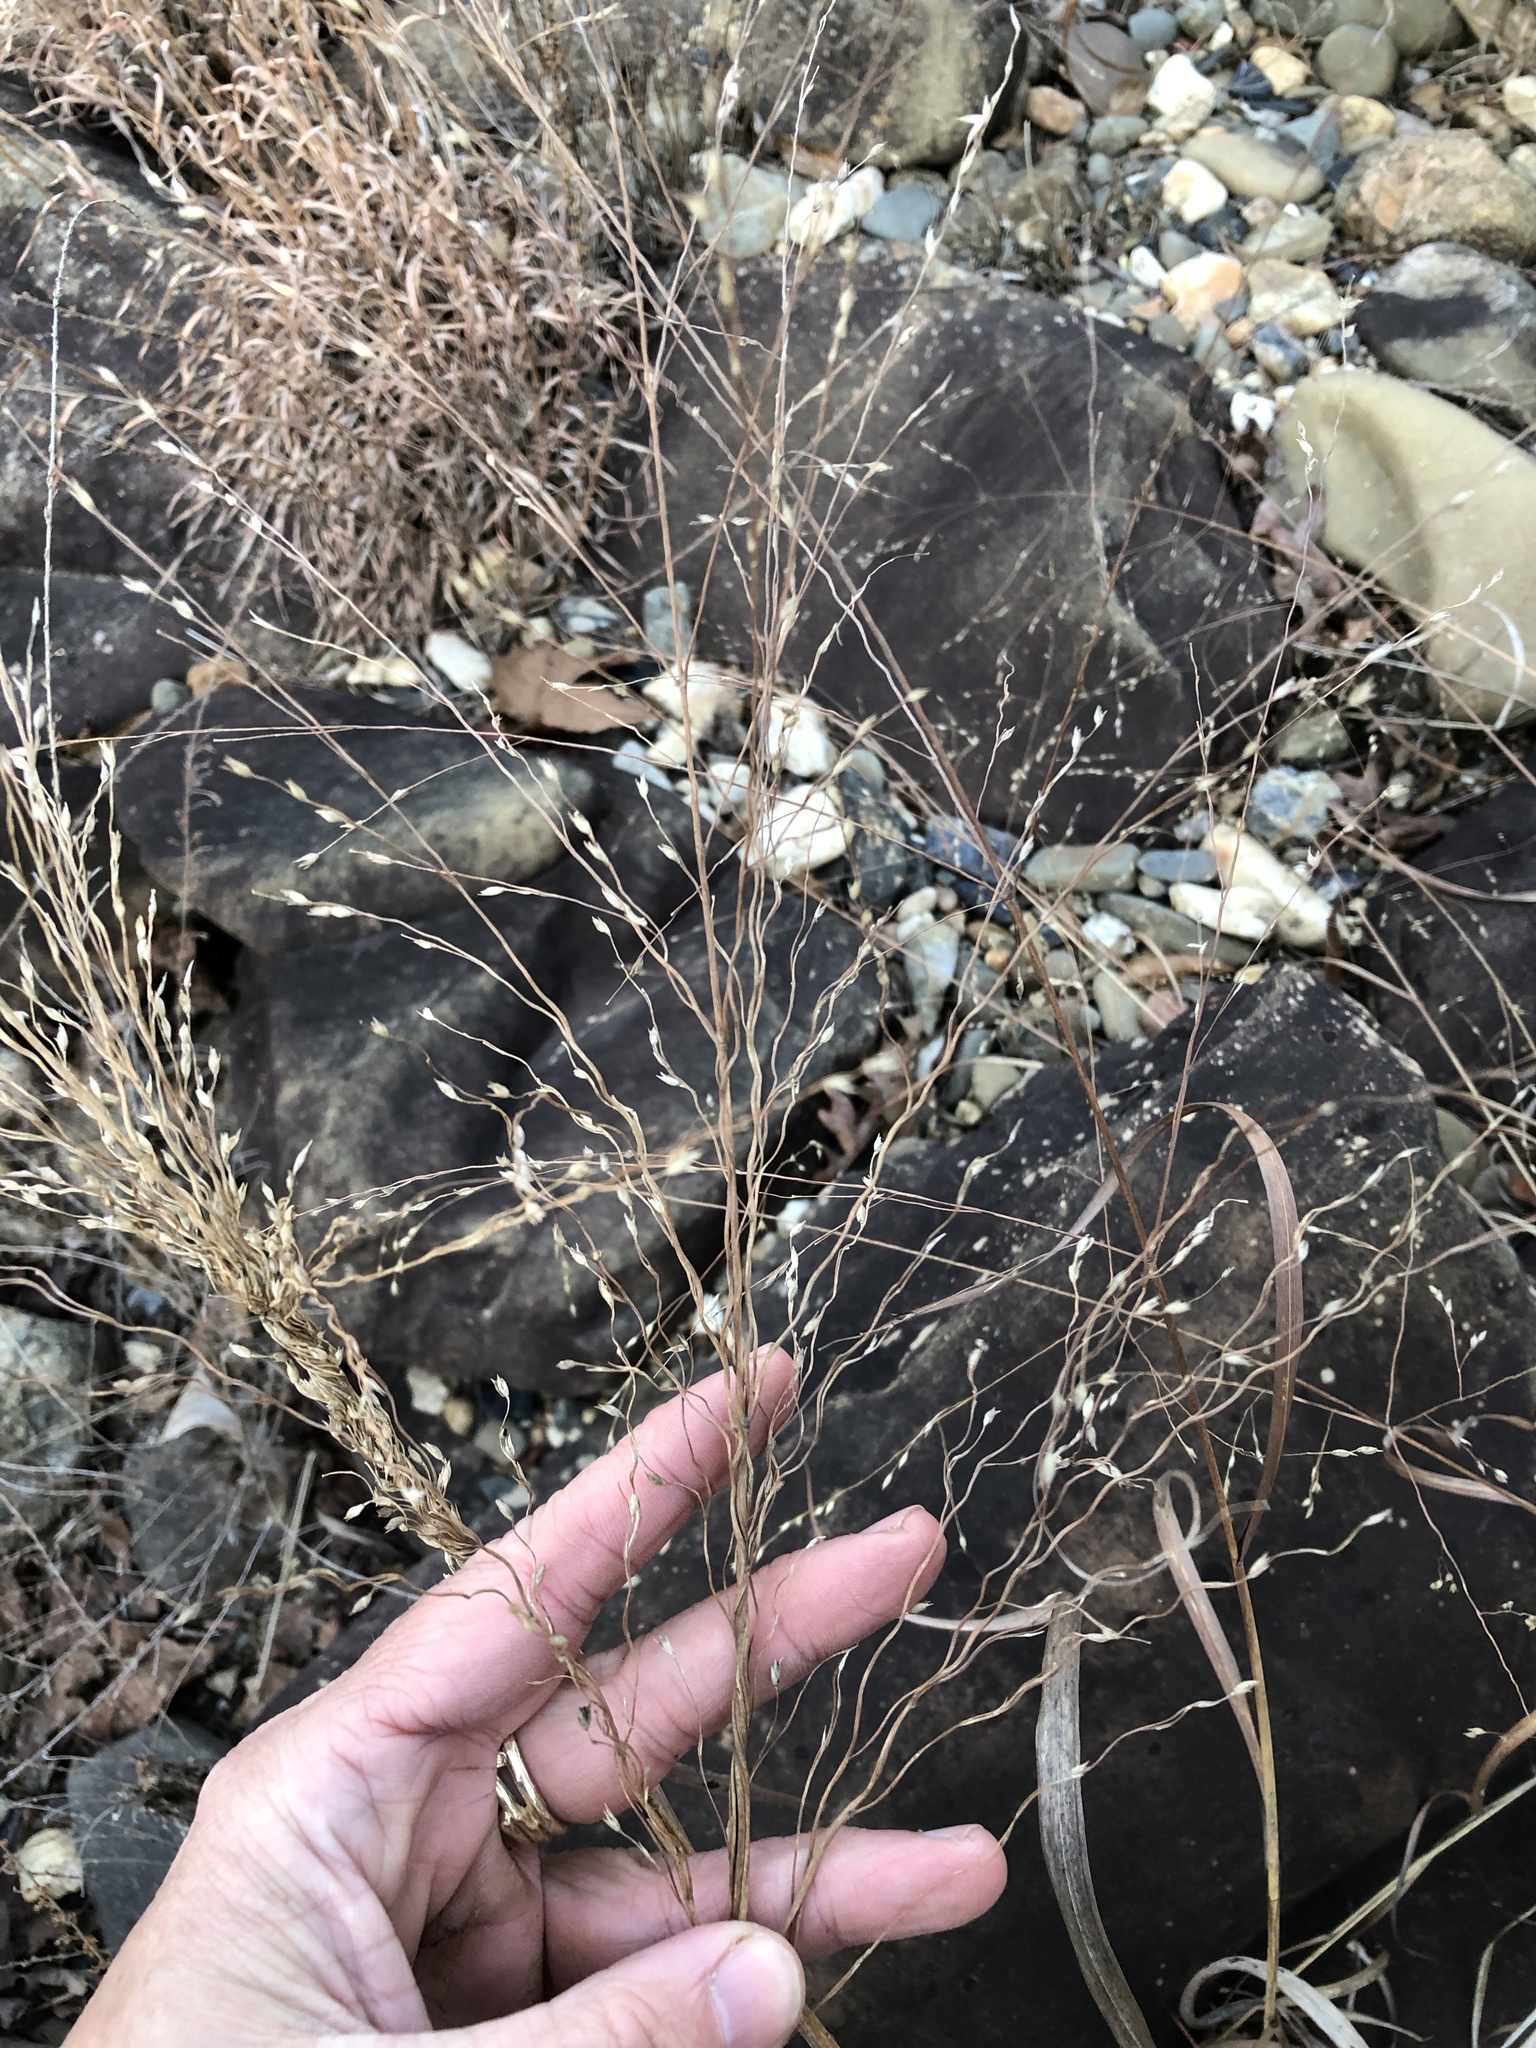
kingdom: Plantae
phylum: Tracheophyta
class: Liliopsida
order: Poales
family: Poaceae
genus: Panicum
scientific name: Panicum virgatum
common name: Switchgrass
